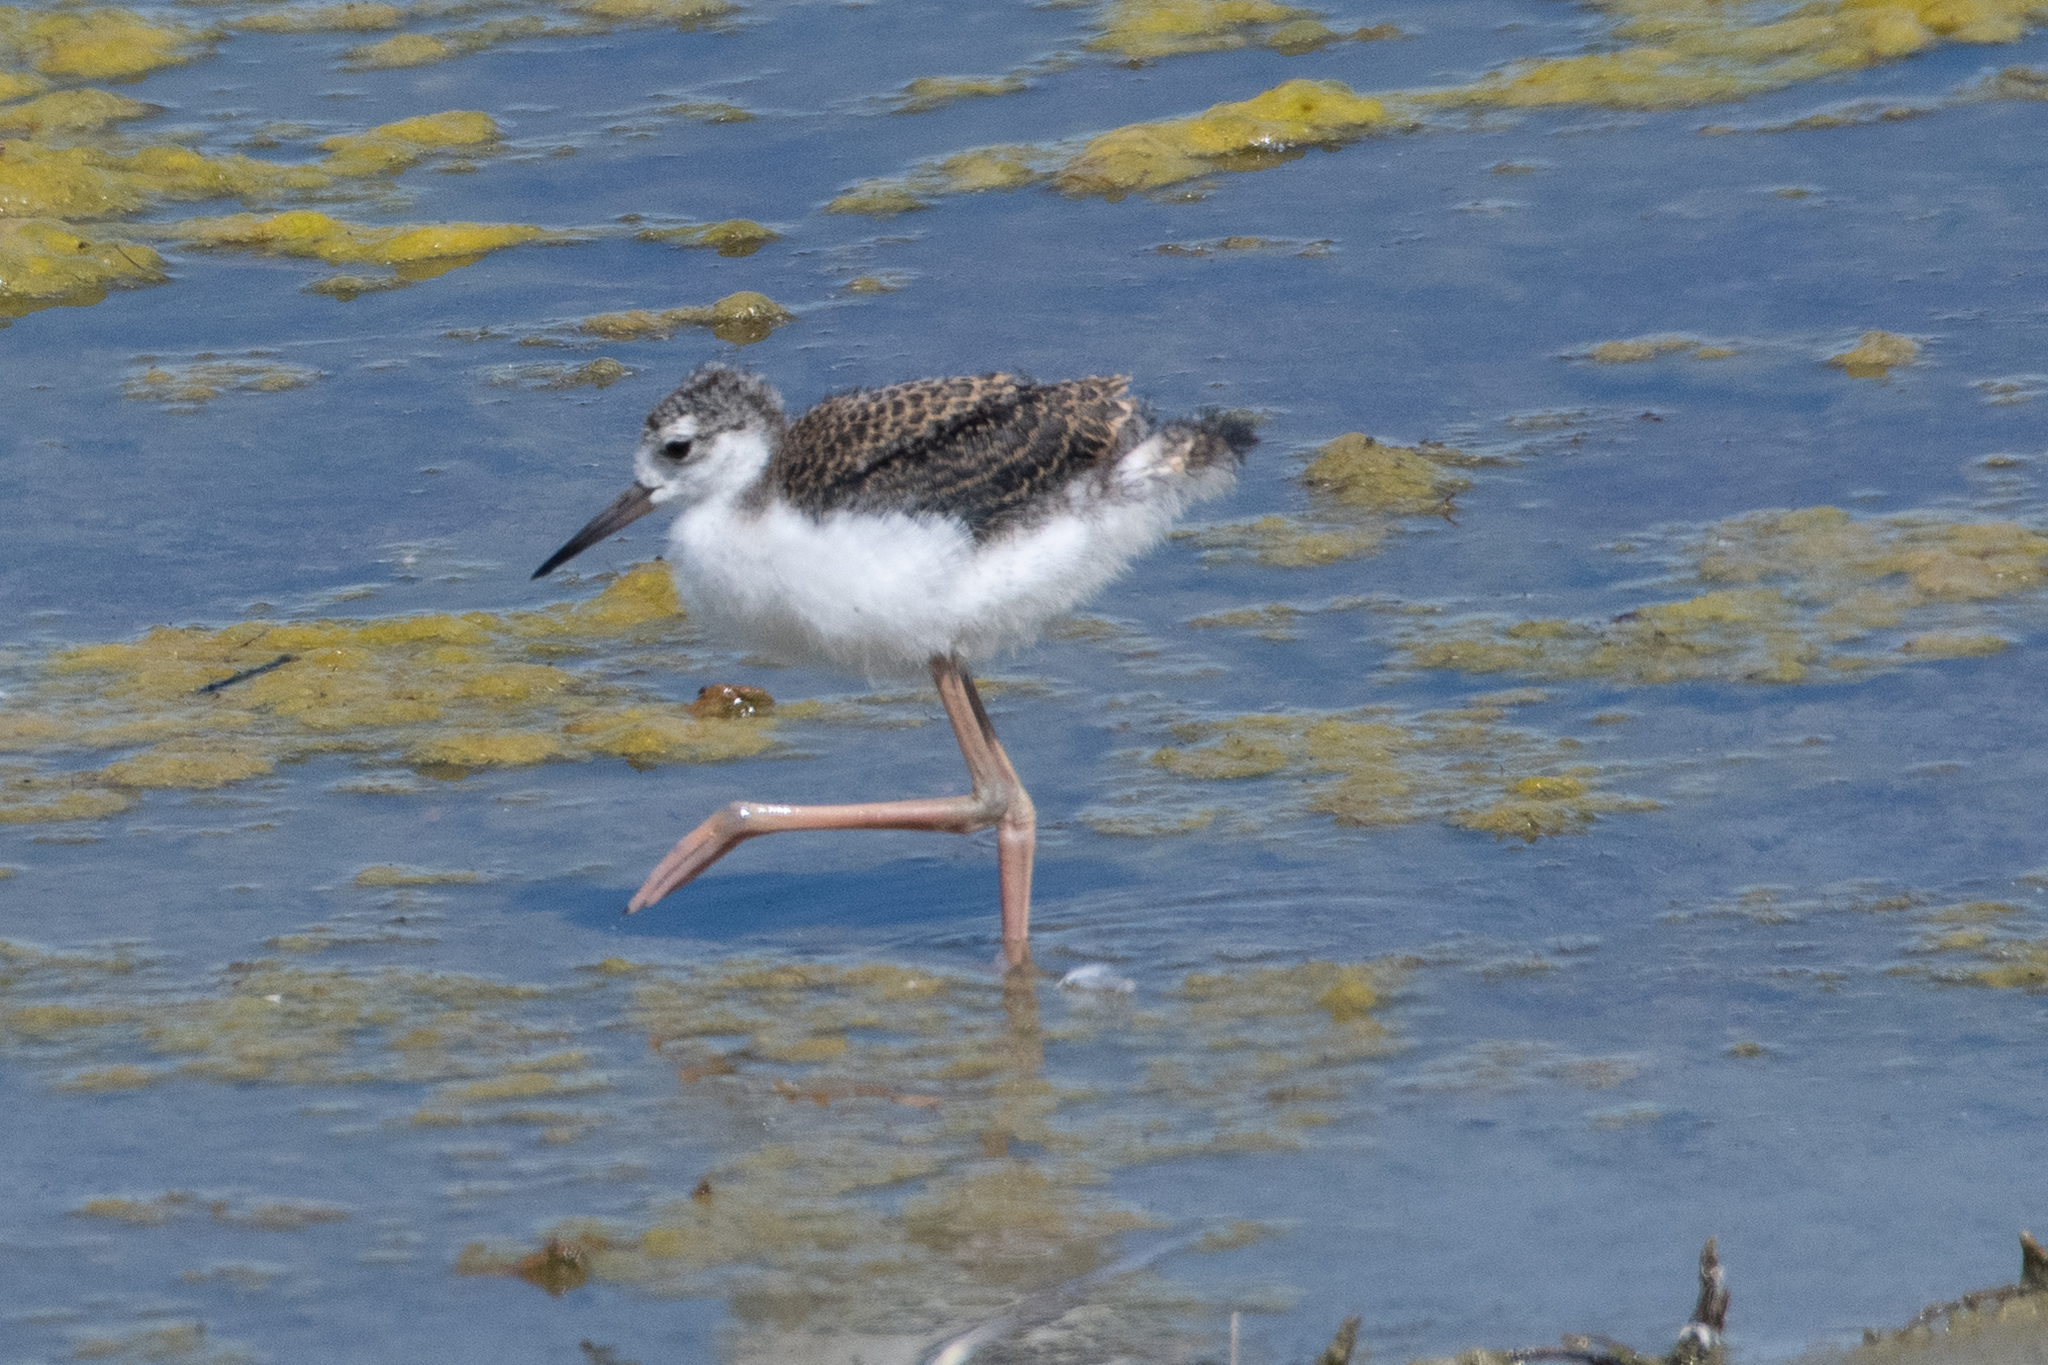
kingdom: Animalia
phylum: Chordata
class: Aves
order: Charadriiformes
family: Recurvirostridae
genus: Himantopus
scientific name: Himantopus mexicanus
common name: Black-necked stilt
